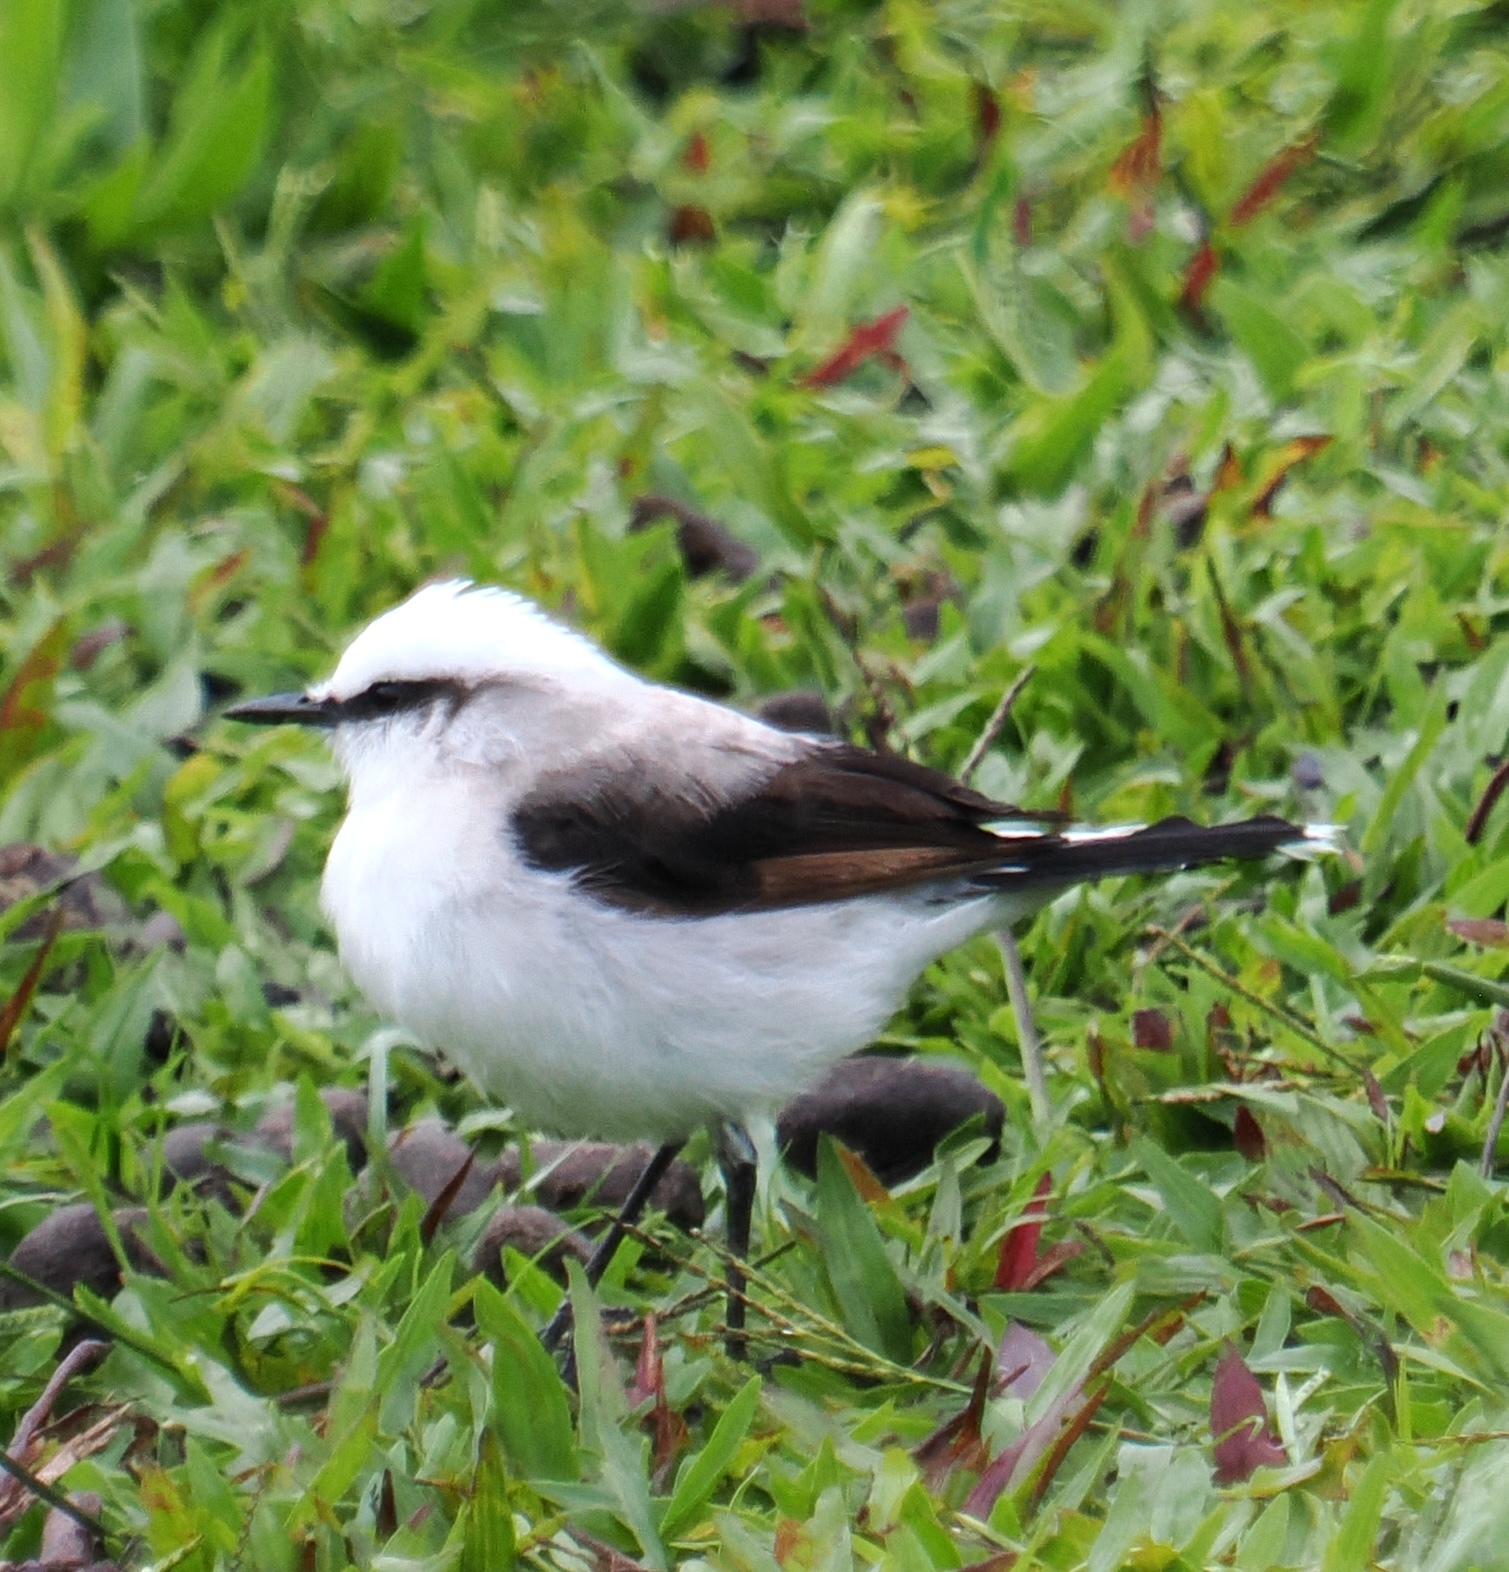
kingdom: Animalia
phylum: Chordata
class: Aves
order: Passeriformes
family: Tyrannidae
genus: Fluvicola
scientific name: Fluvicola nengeta
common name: Masked water tyrant
